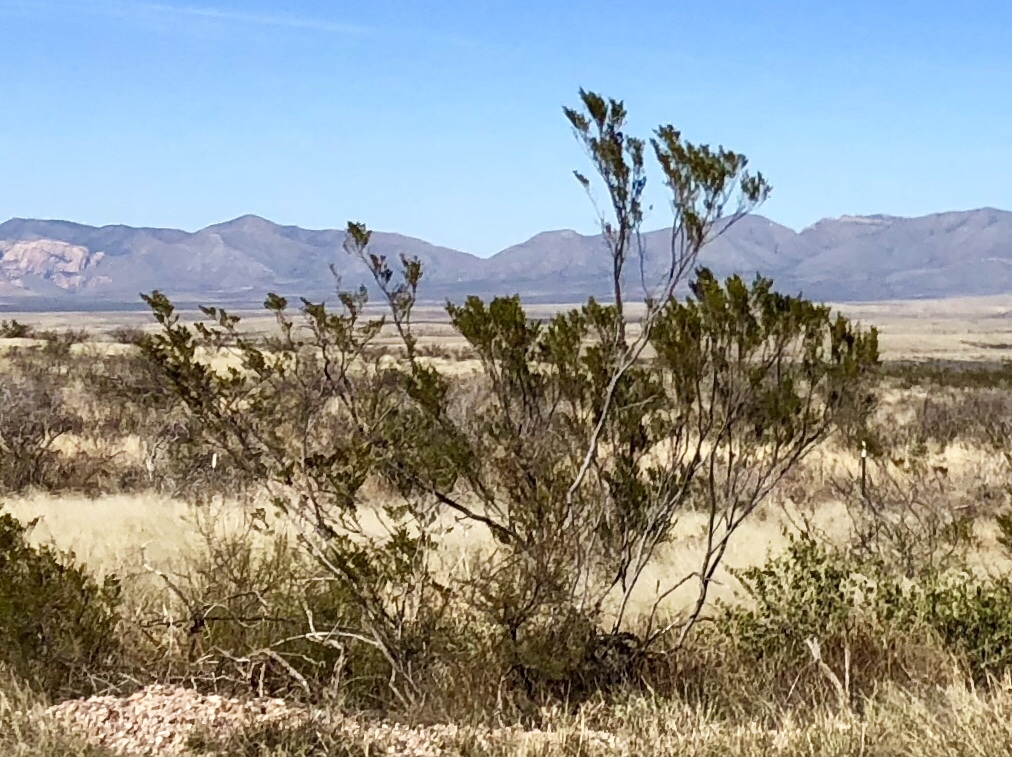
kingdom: Plantae
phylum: Tracheophyta
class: Magnoliopsida
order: Zygophyllales
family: Zygophyllaceae
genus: Larrea
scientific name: Larrea tridentata
